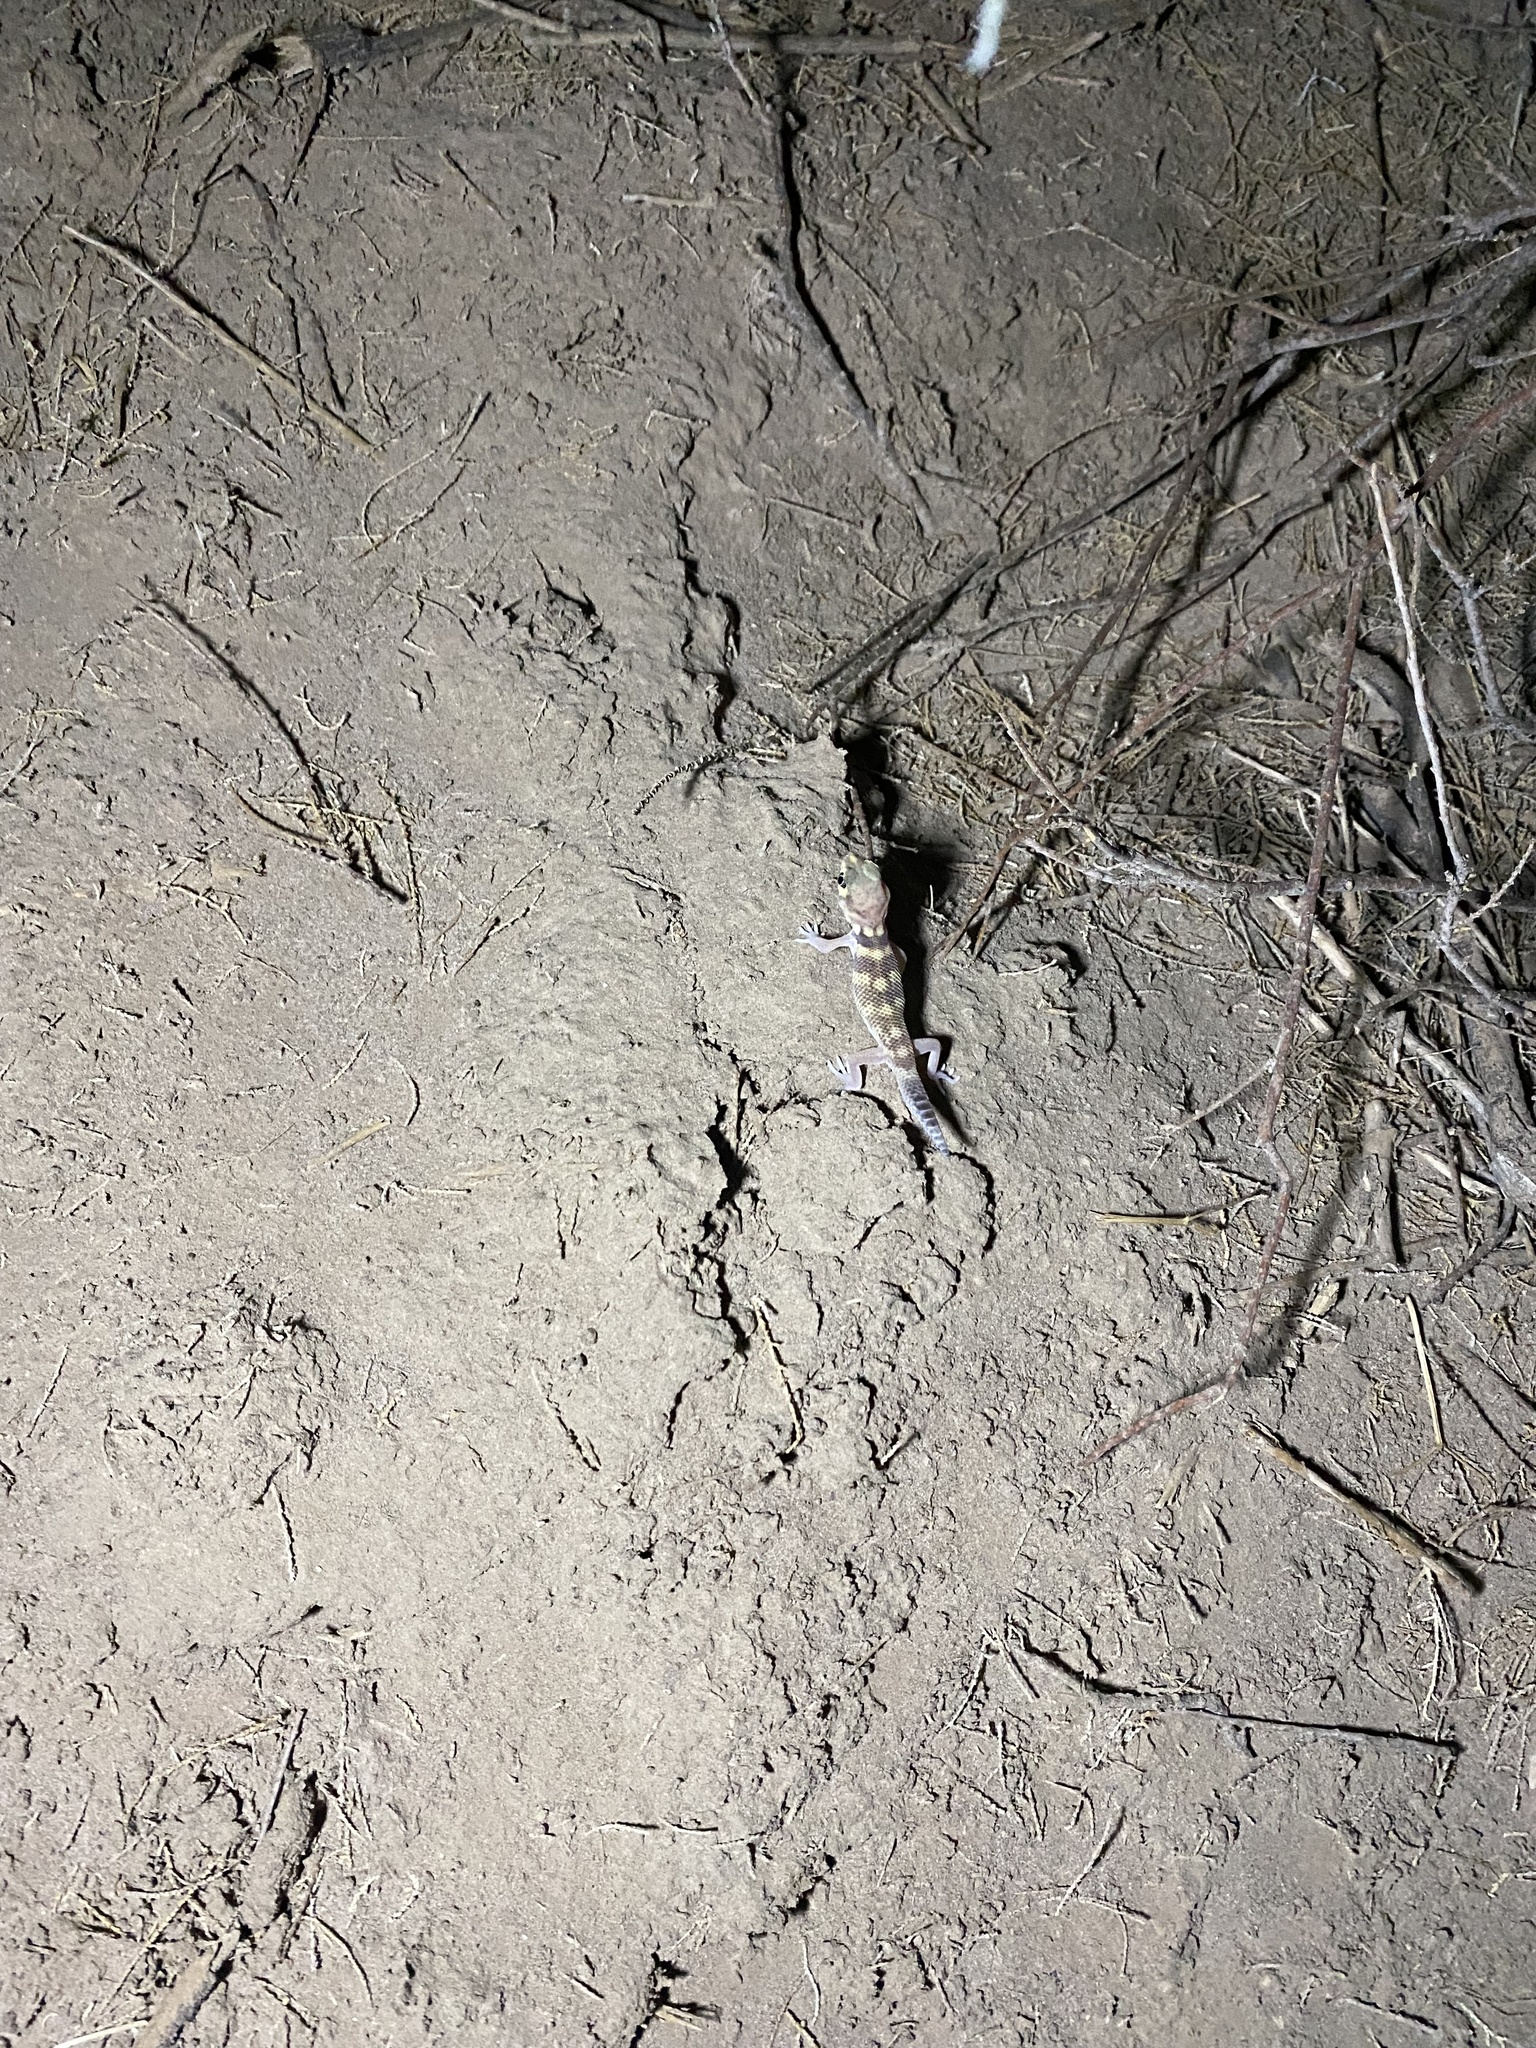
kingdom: Animalia
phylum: Chordata
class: Squamata
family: Sphaerodactylidae
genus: Teratoscincus
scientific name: Teratoscincus bedriagai
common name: Bedriaga's plate-tailed gecko
